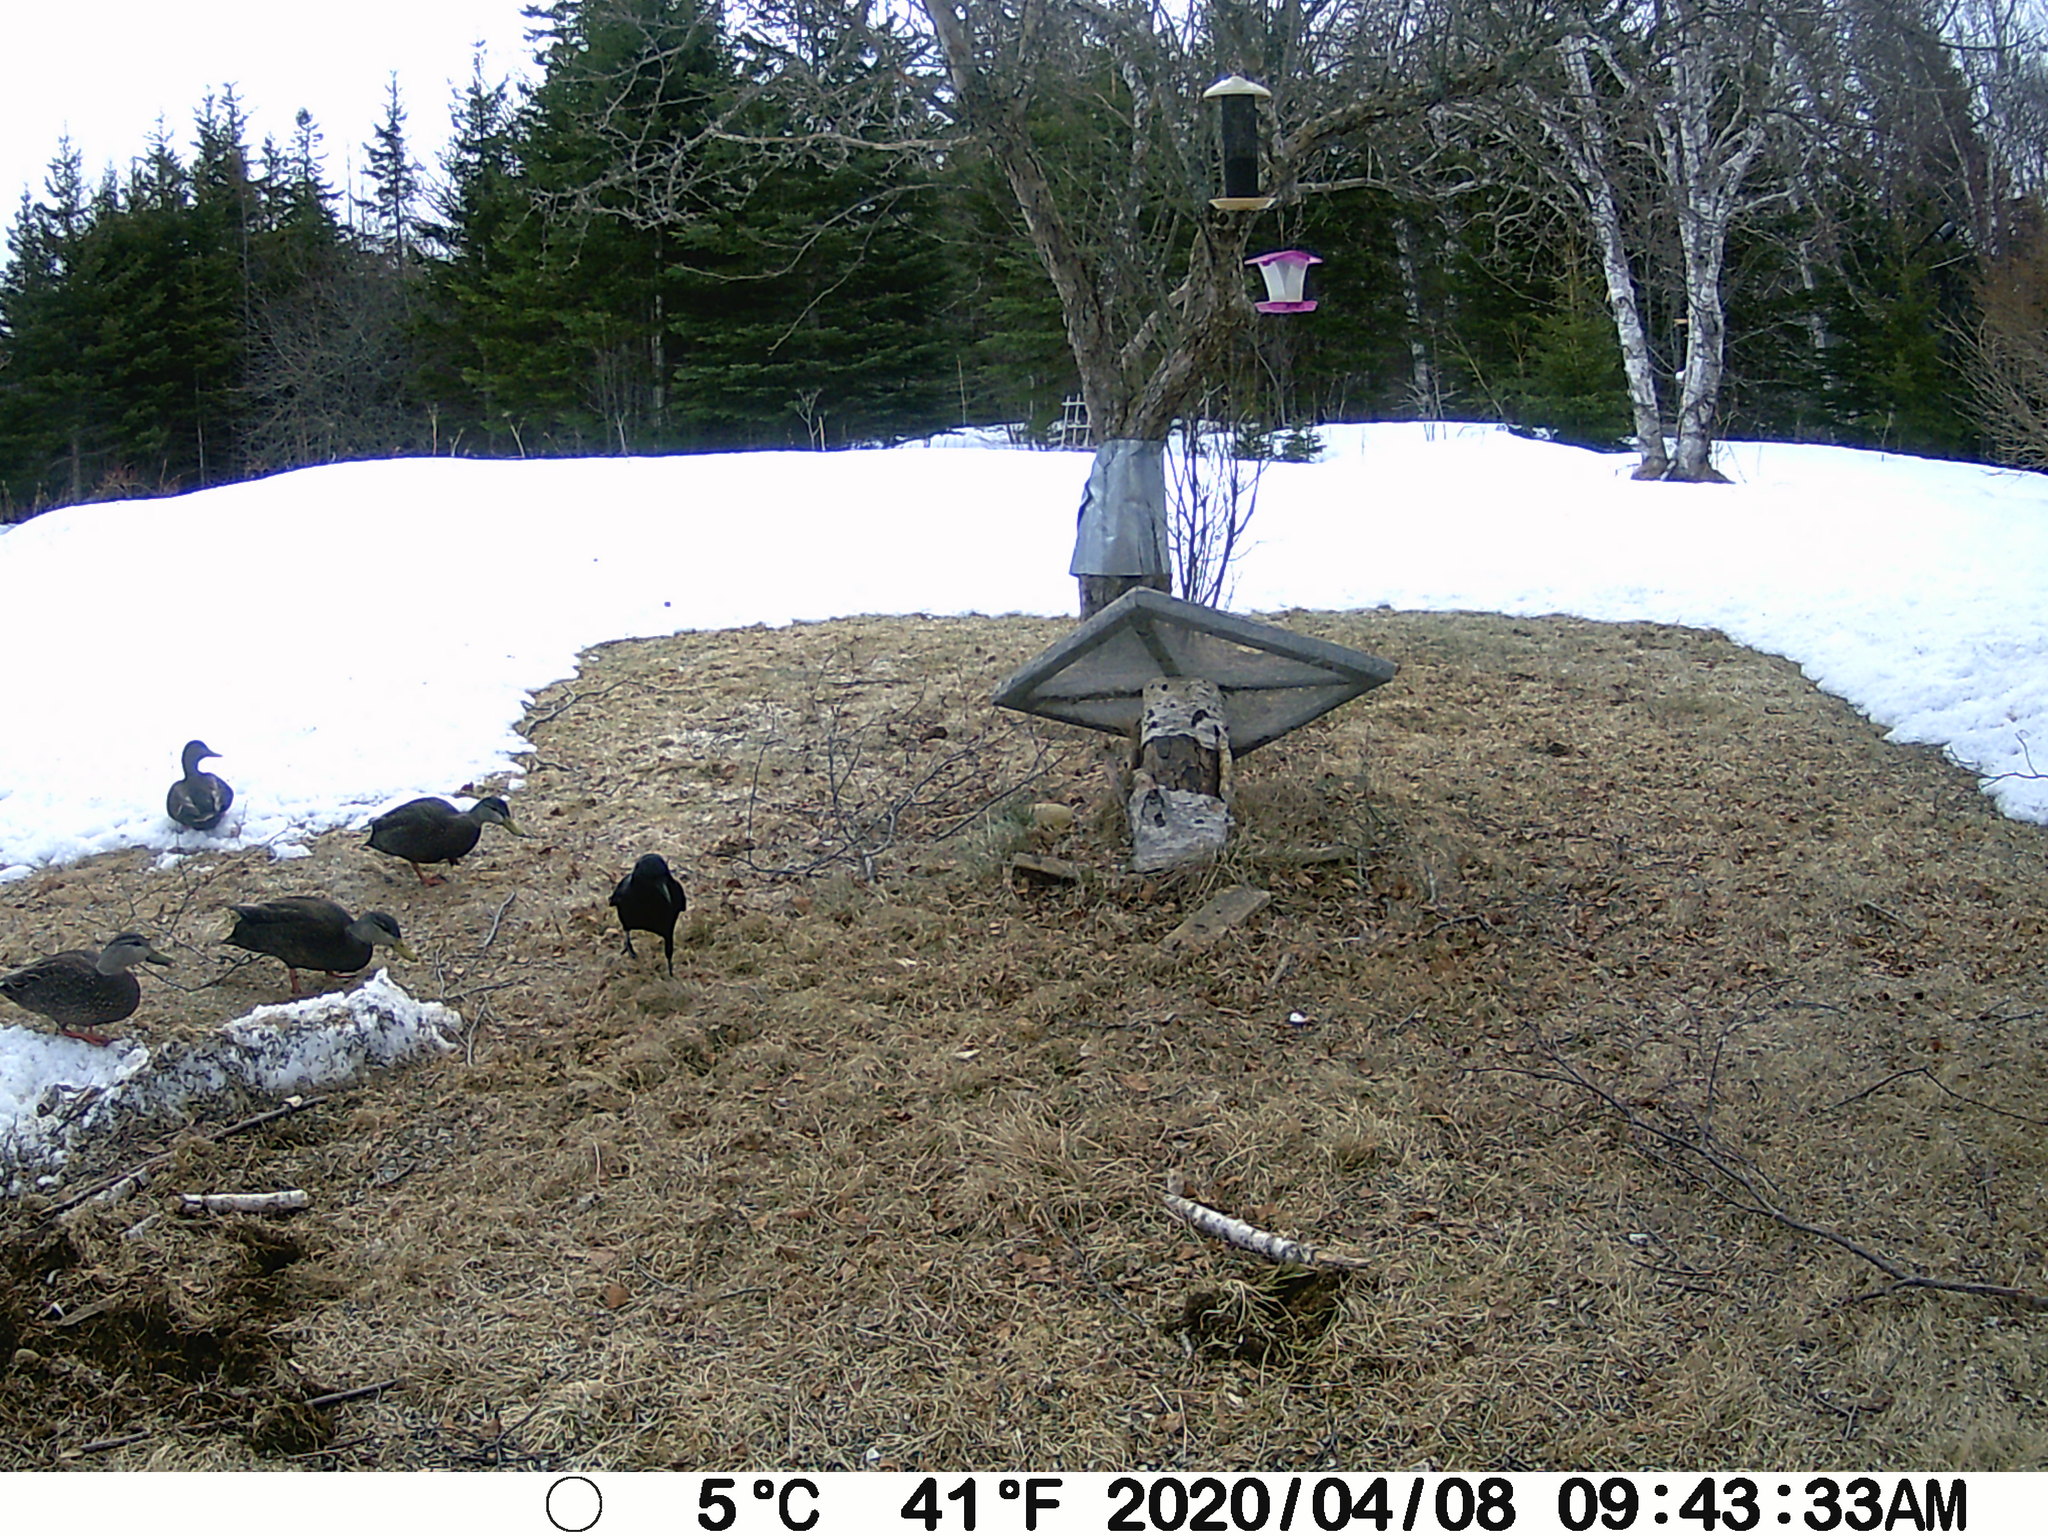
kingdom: Animalia
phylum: Chordata
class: Aves
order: Anseriformes
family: Anatidae
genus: Anas
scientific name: Anas rubripes
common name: American black duck
